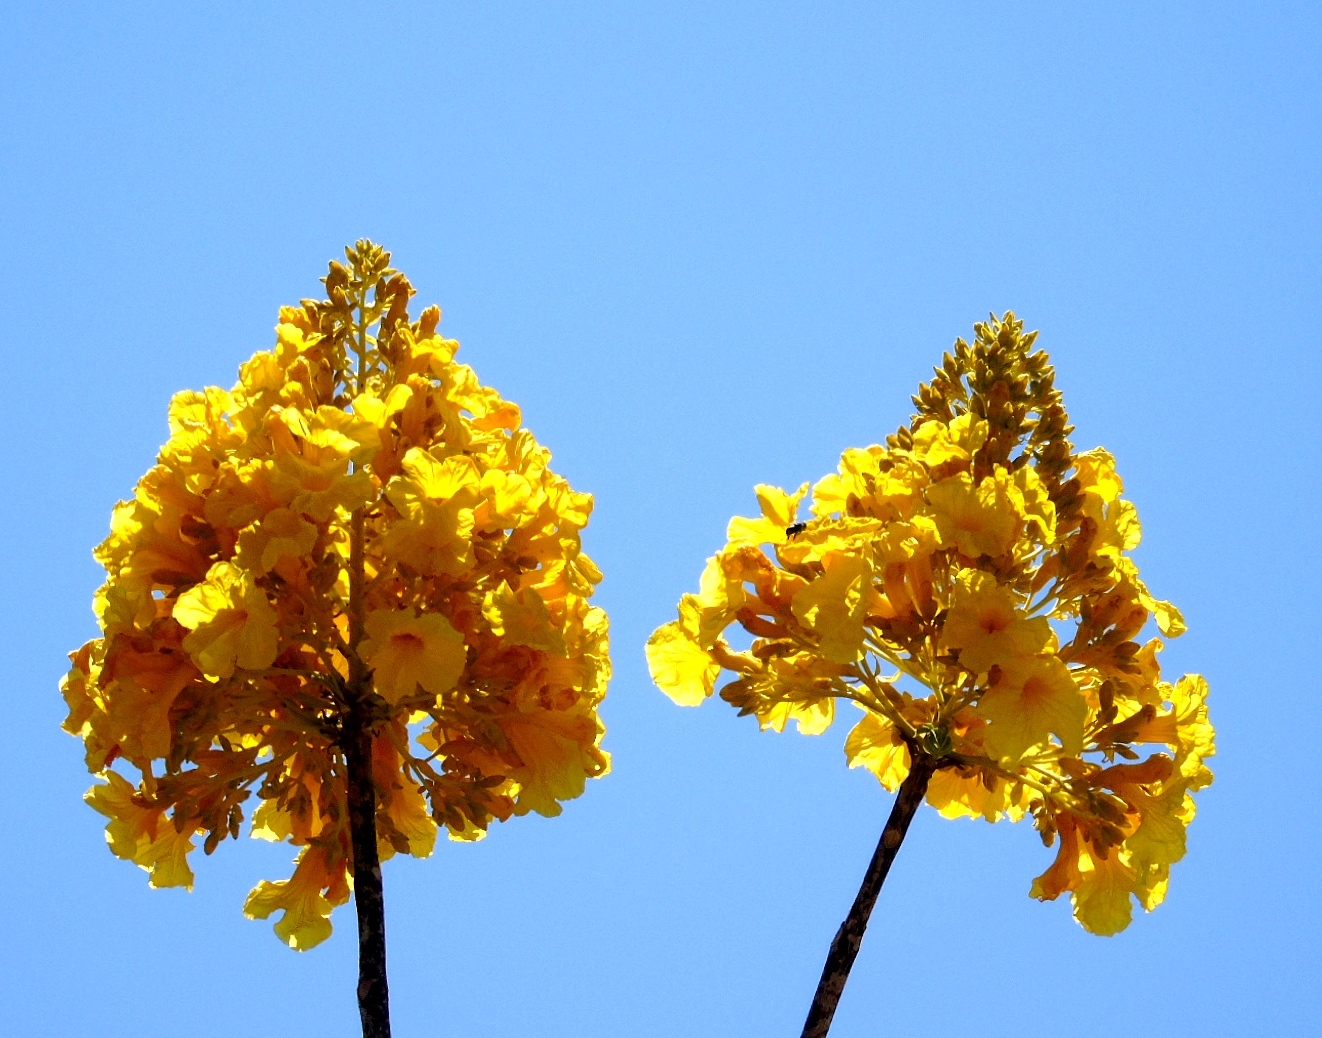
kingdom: Plantae
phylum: Tracheophyta
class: Magnoliopsida
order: Lamiales
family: Bignoniaceae
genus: Handroanthus
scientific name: Handroanthus chrysanthus
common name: Trumpet trees
